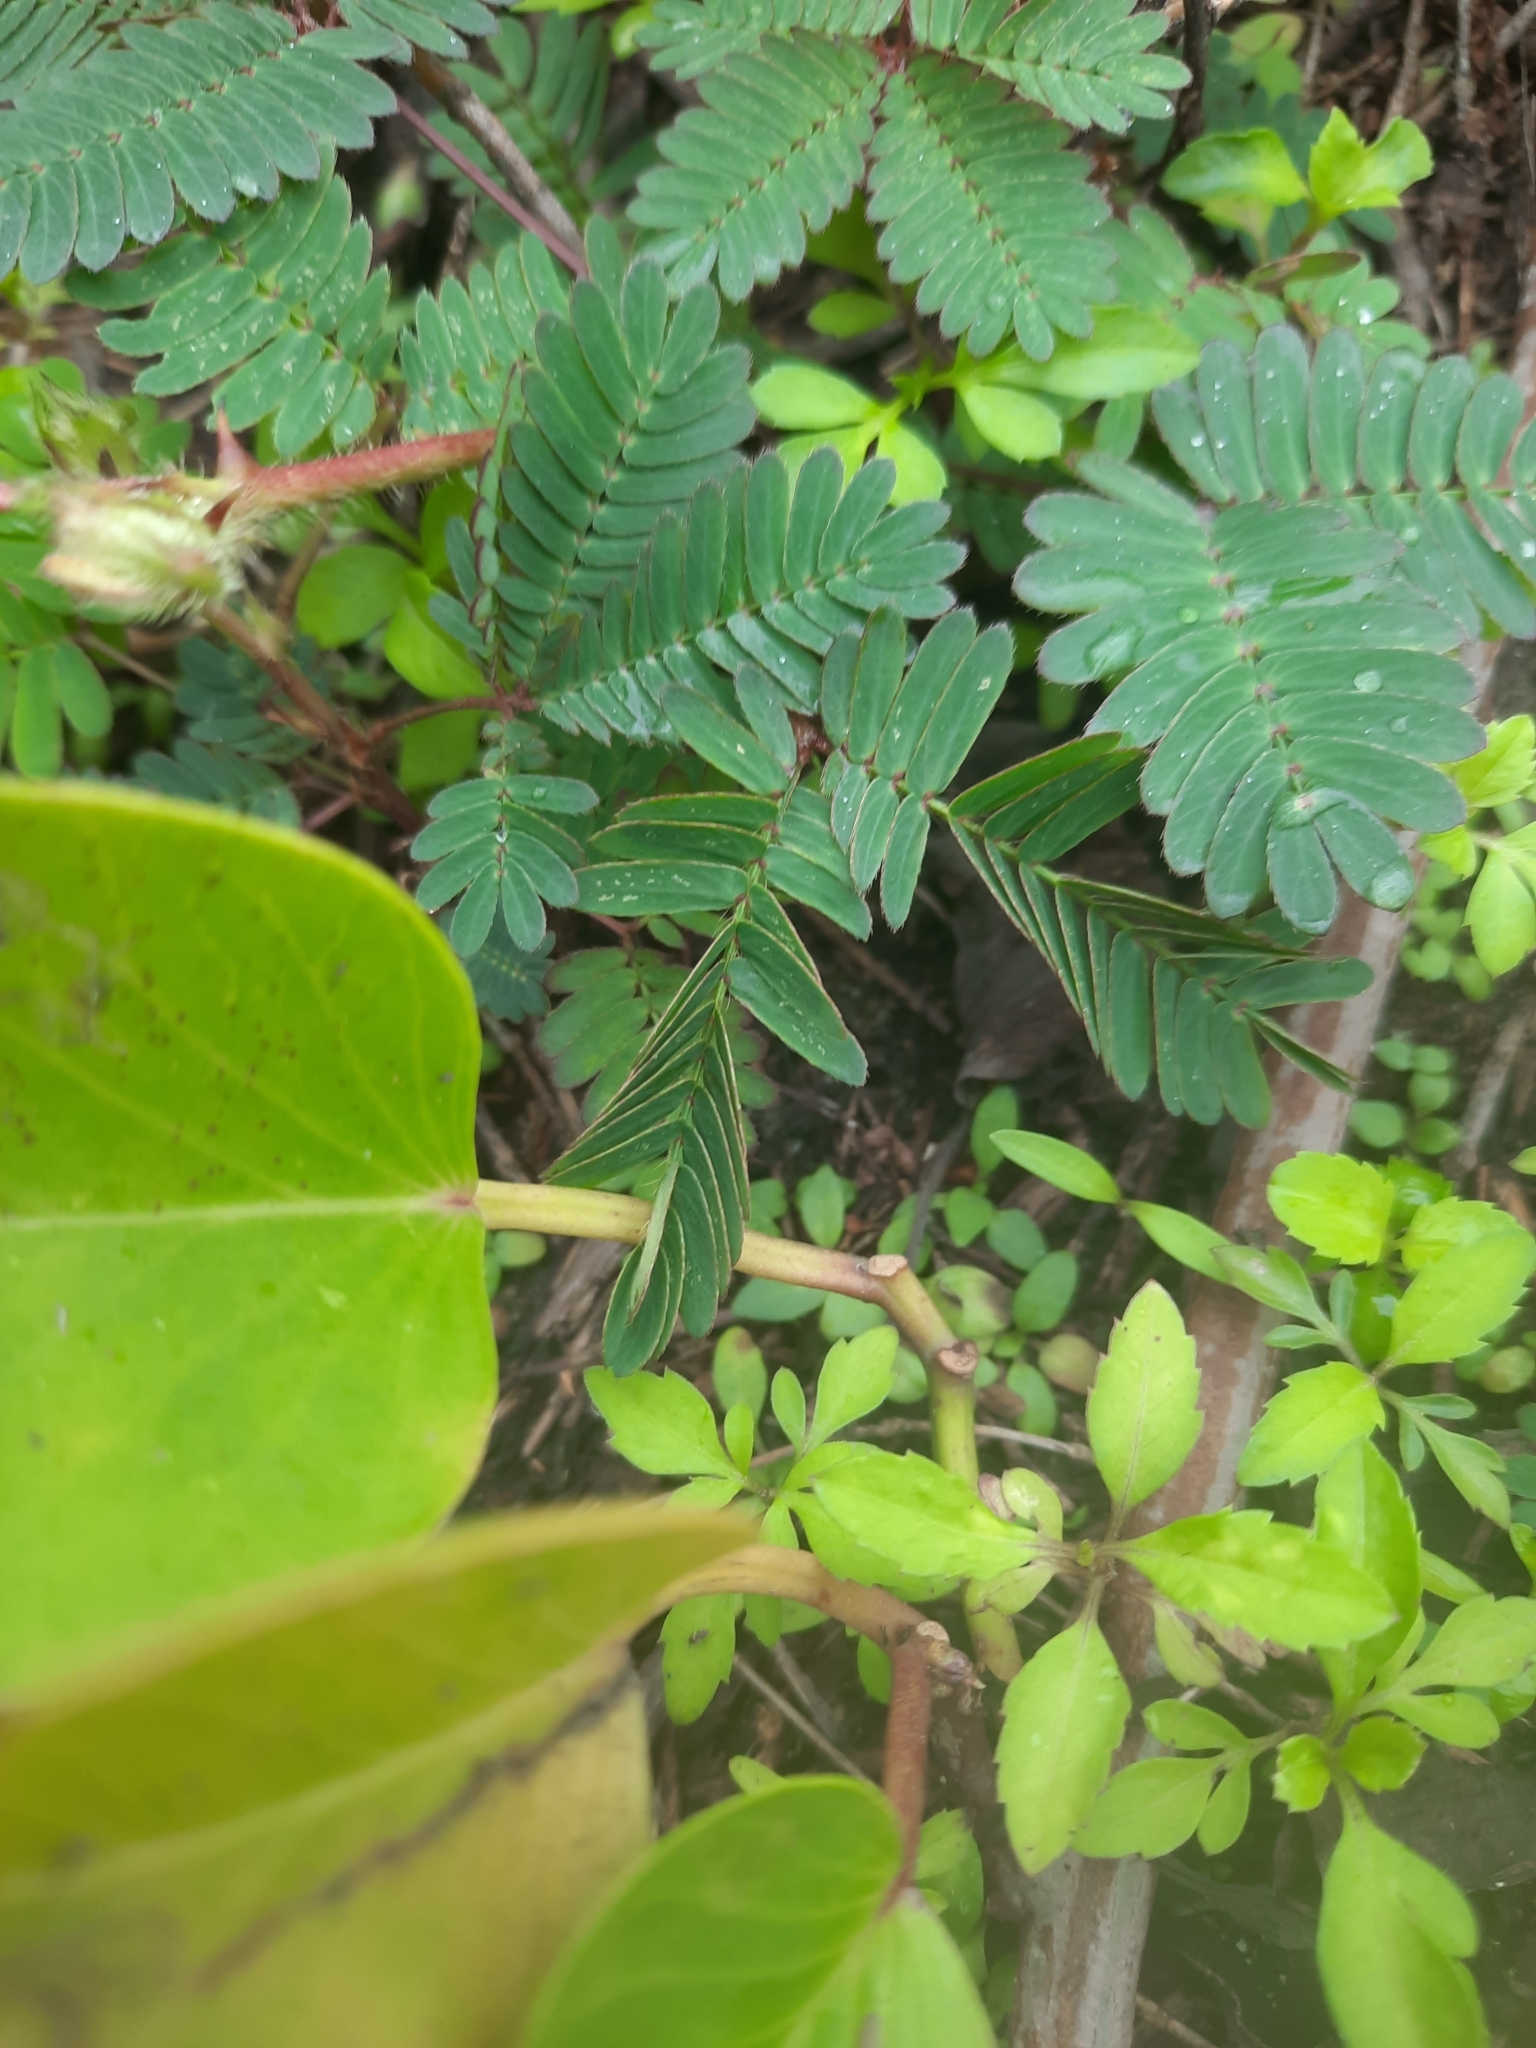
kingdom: Plantae
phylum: Tracheophyta
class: Magnoliopsida
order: Fabales
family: Fabaceae
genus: Mimosa
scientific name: Mimosa pudica
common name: Sensitive plant
